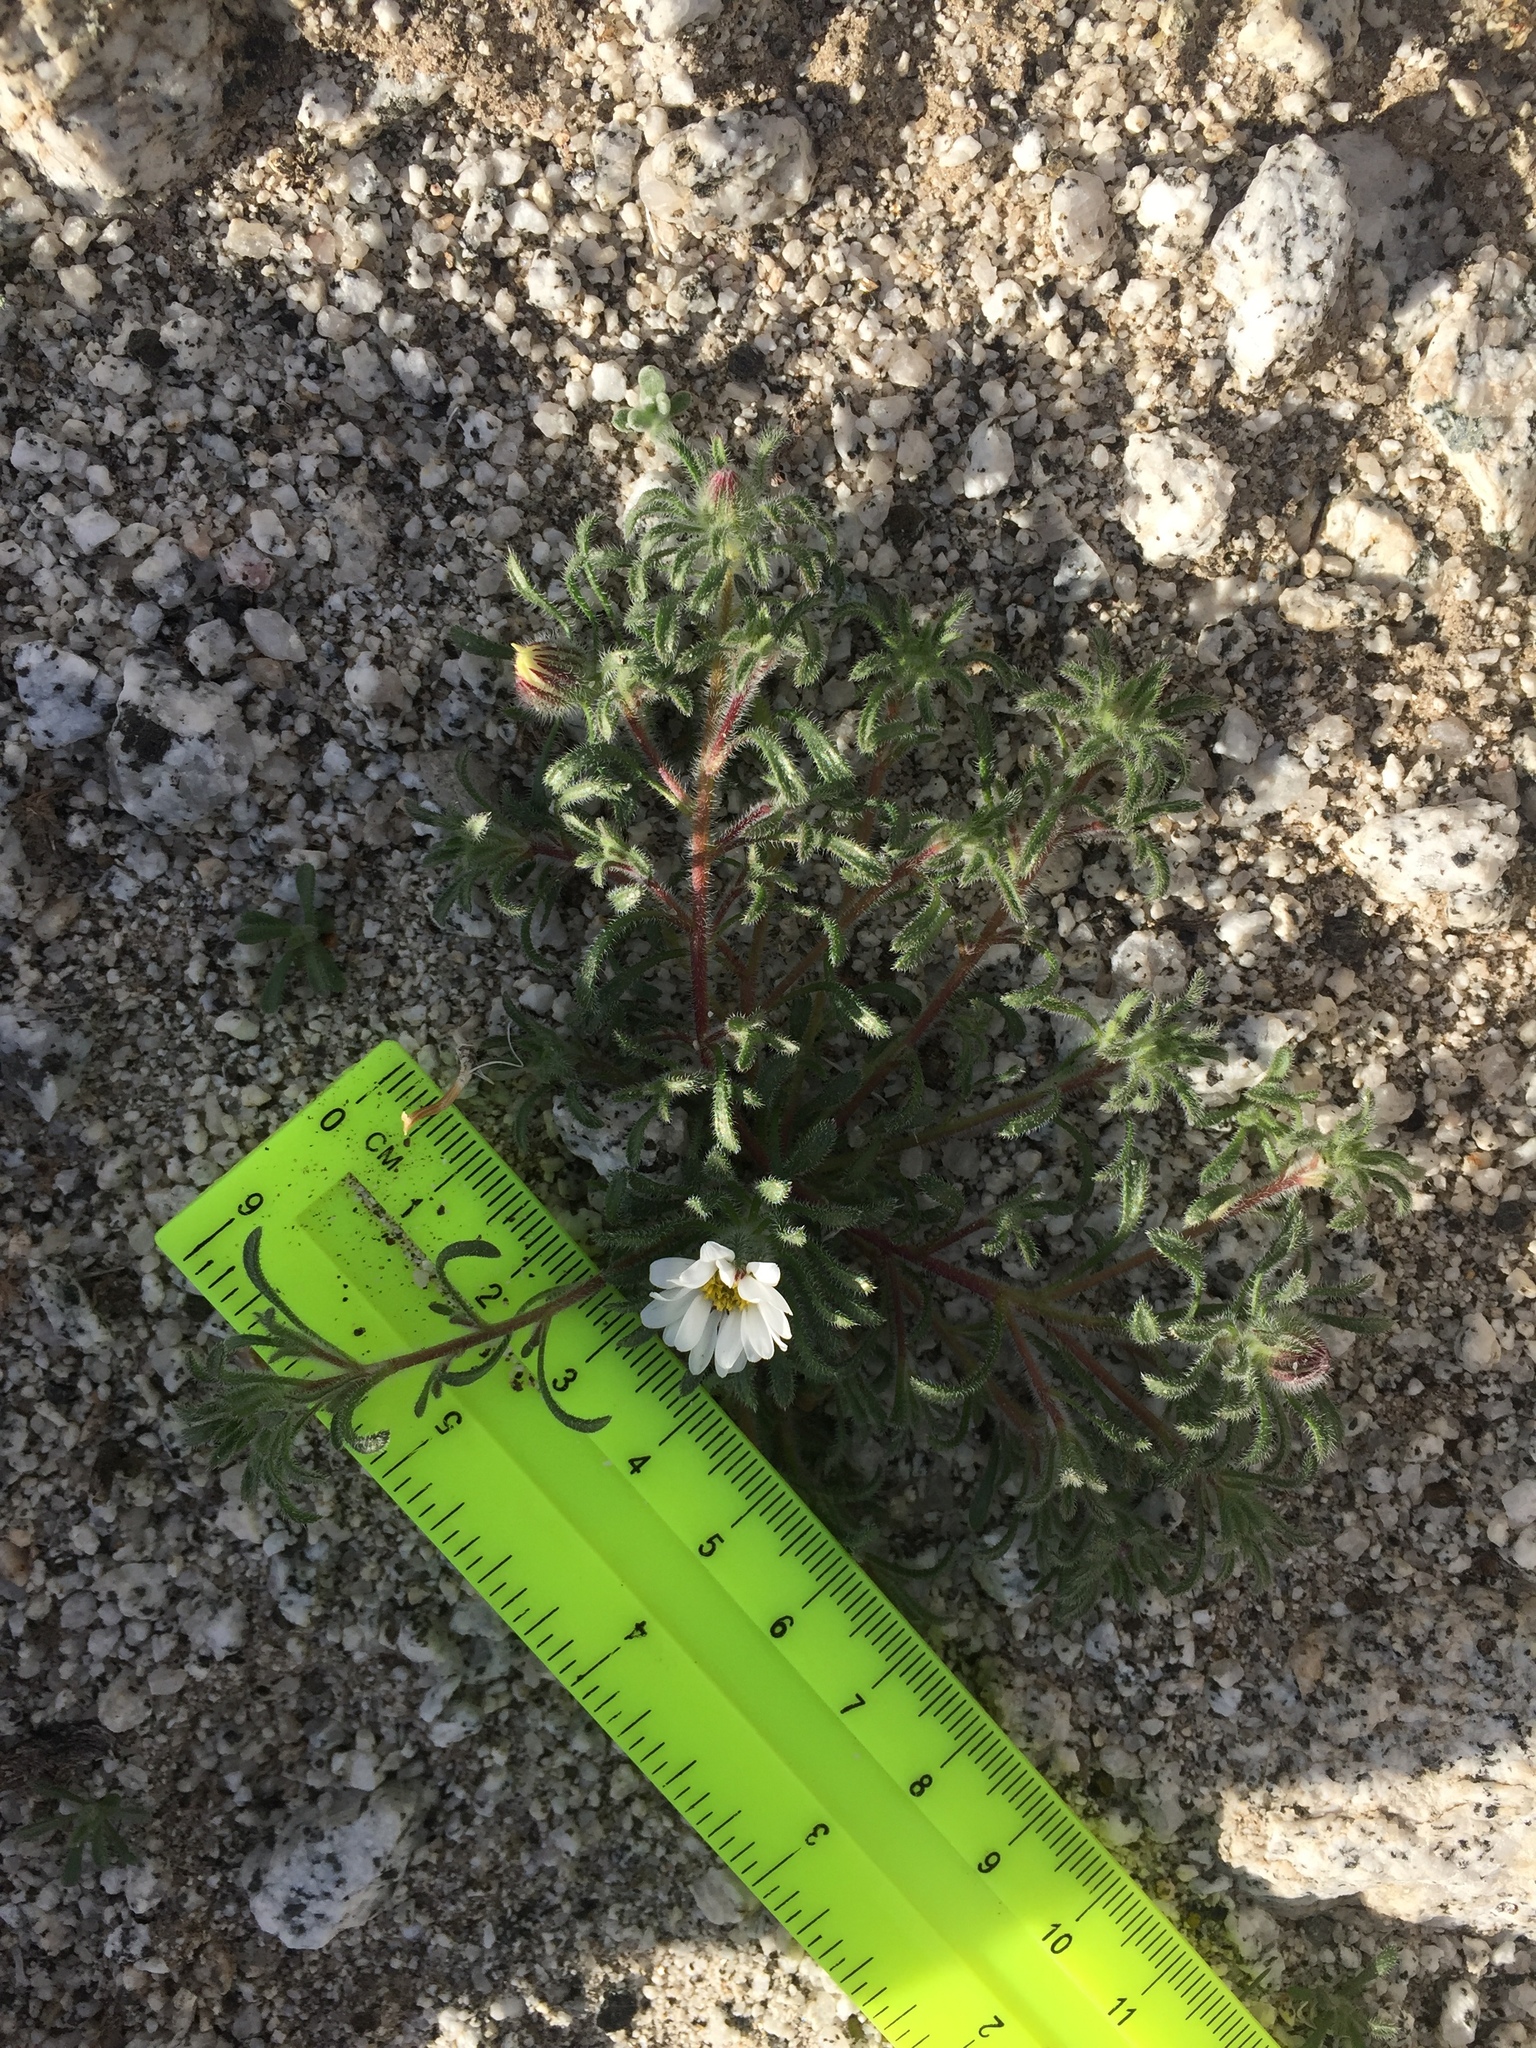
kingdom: Plantae
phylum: Tracheophyta
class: Magnoliopsida
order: Asterales
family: Asteraceae
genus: Monoptilon
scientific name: Monoptilon bellioides
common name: Bristly desertstar
